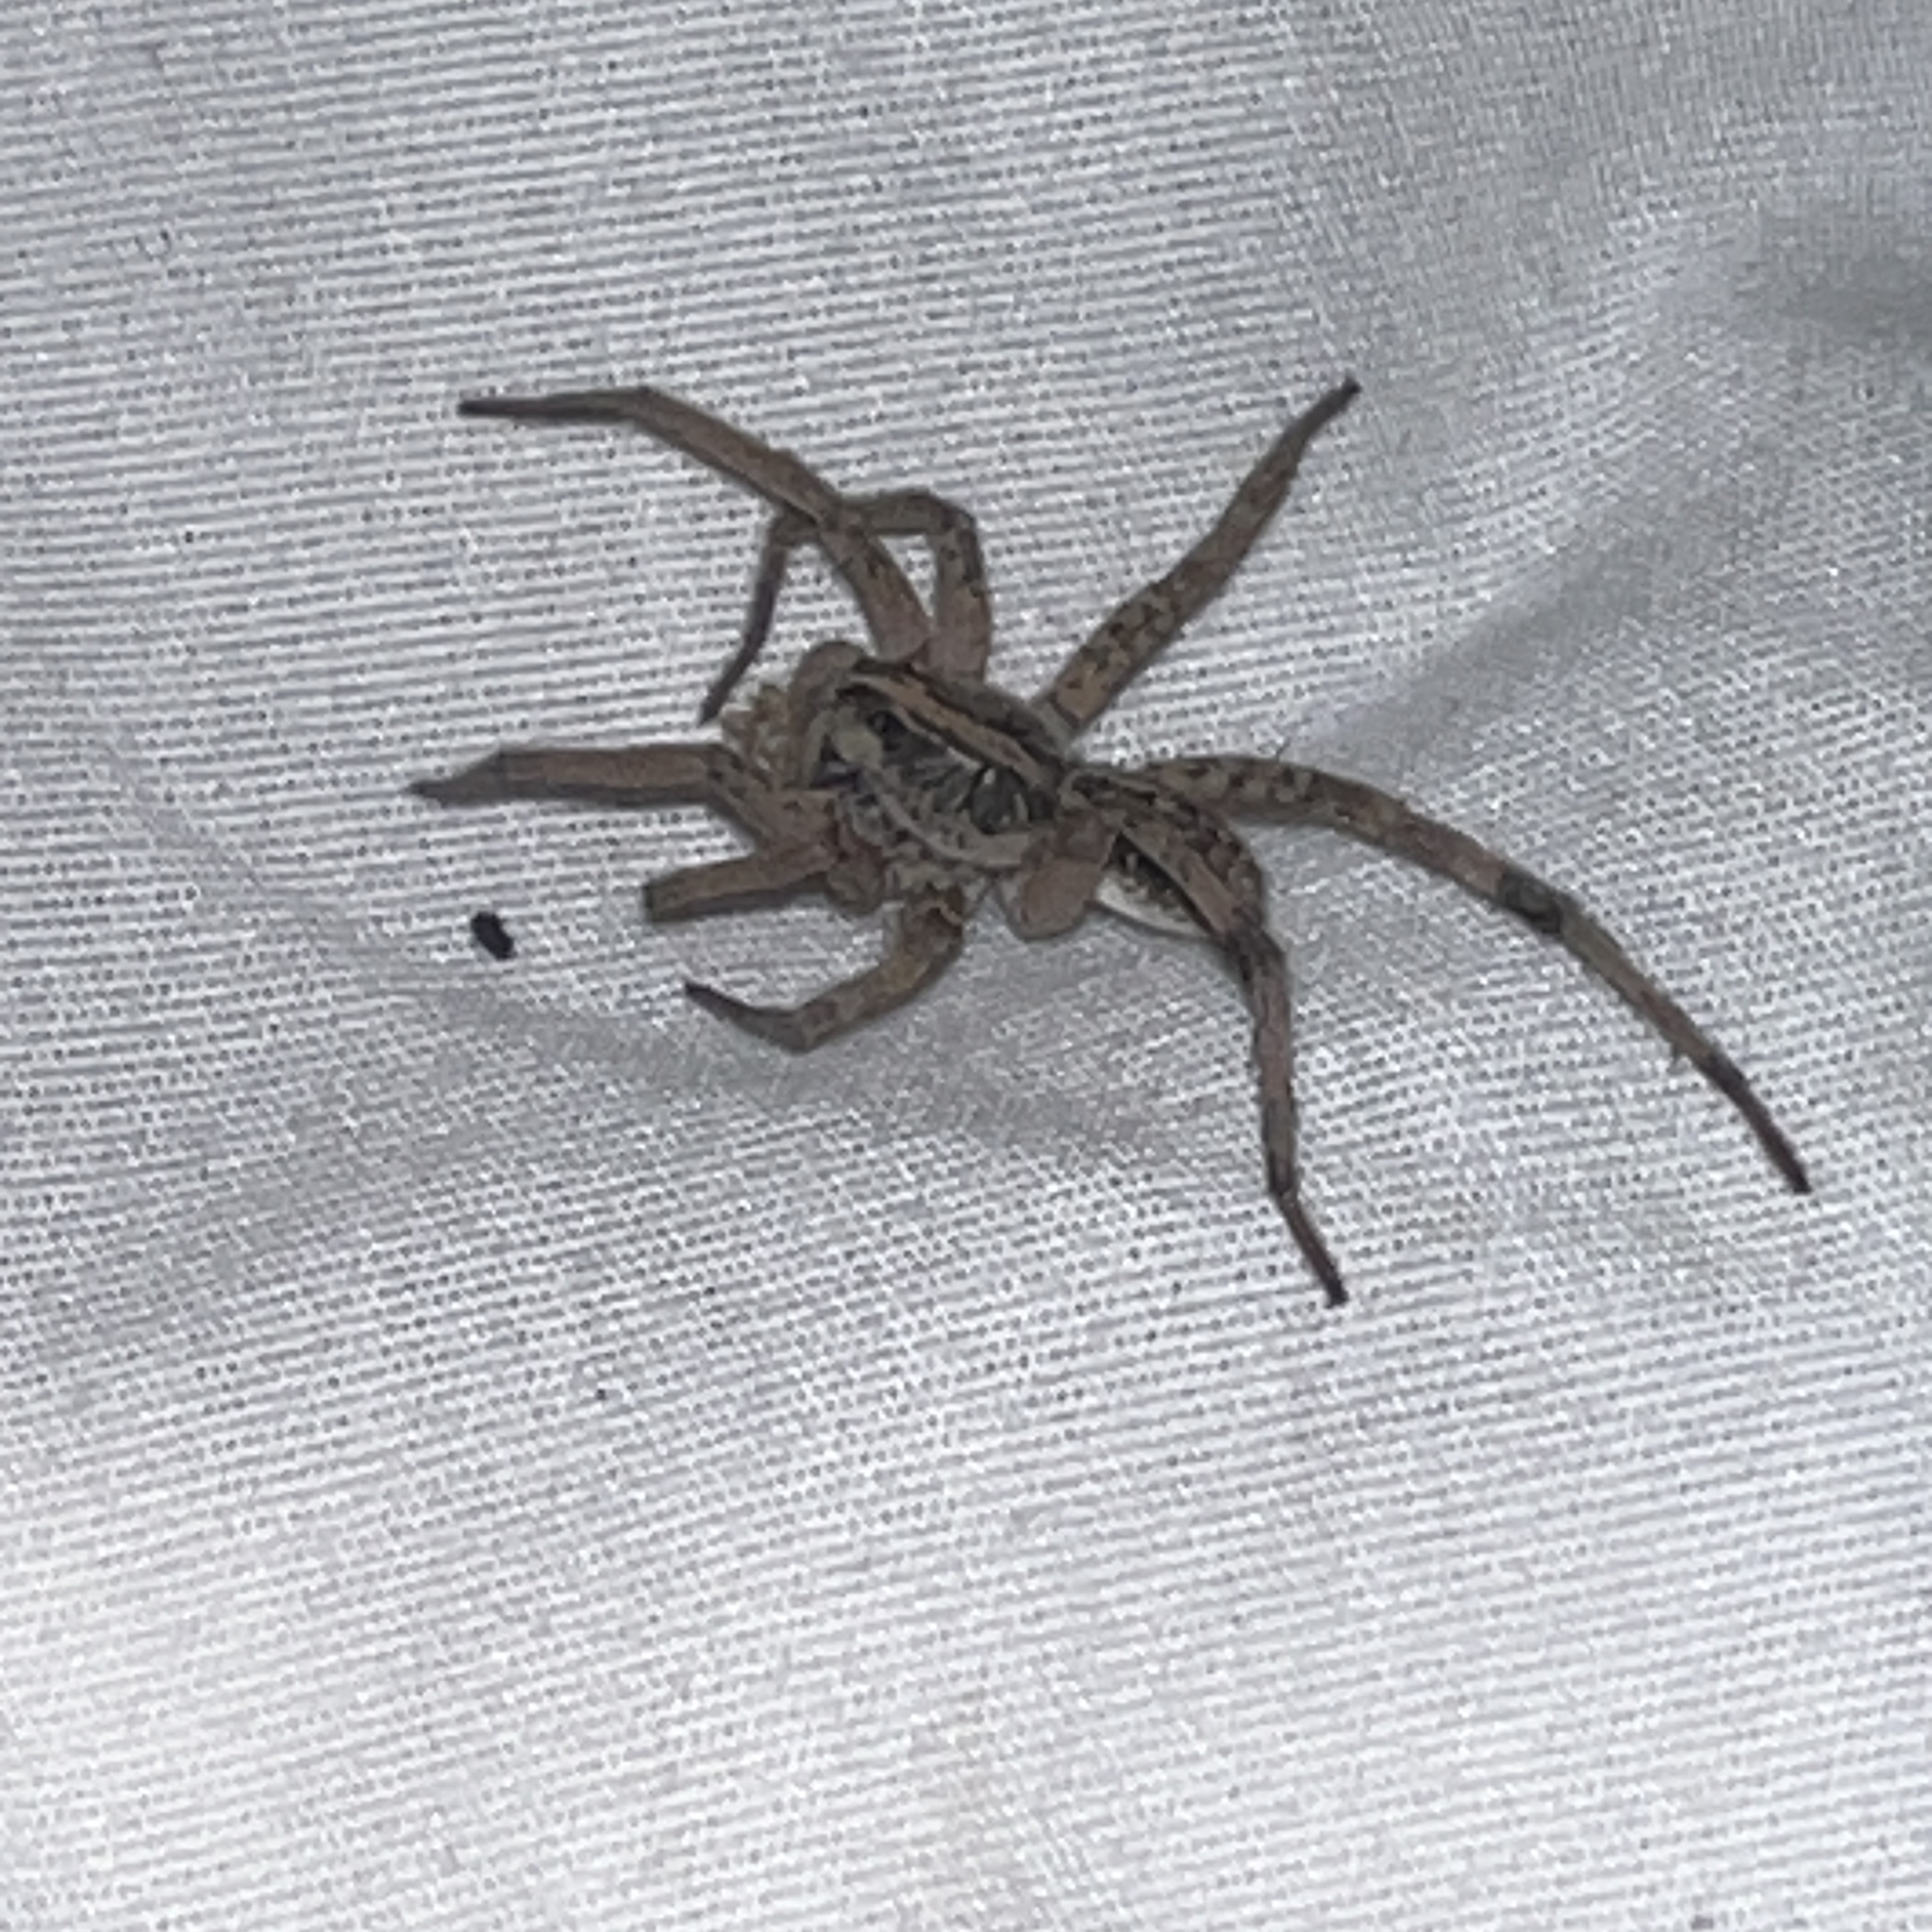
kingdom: Animalia
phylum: Arthropoda
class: Arachnida
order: Araneae
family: Lycosidae
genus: Hogna
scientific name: Hogna antelucana
